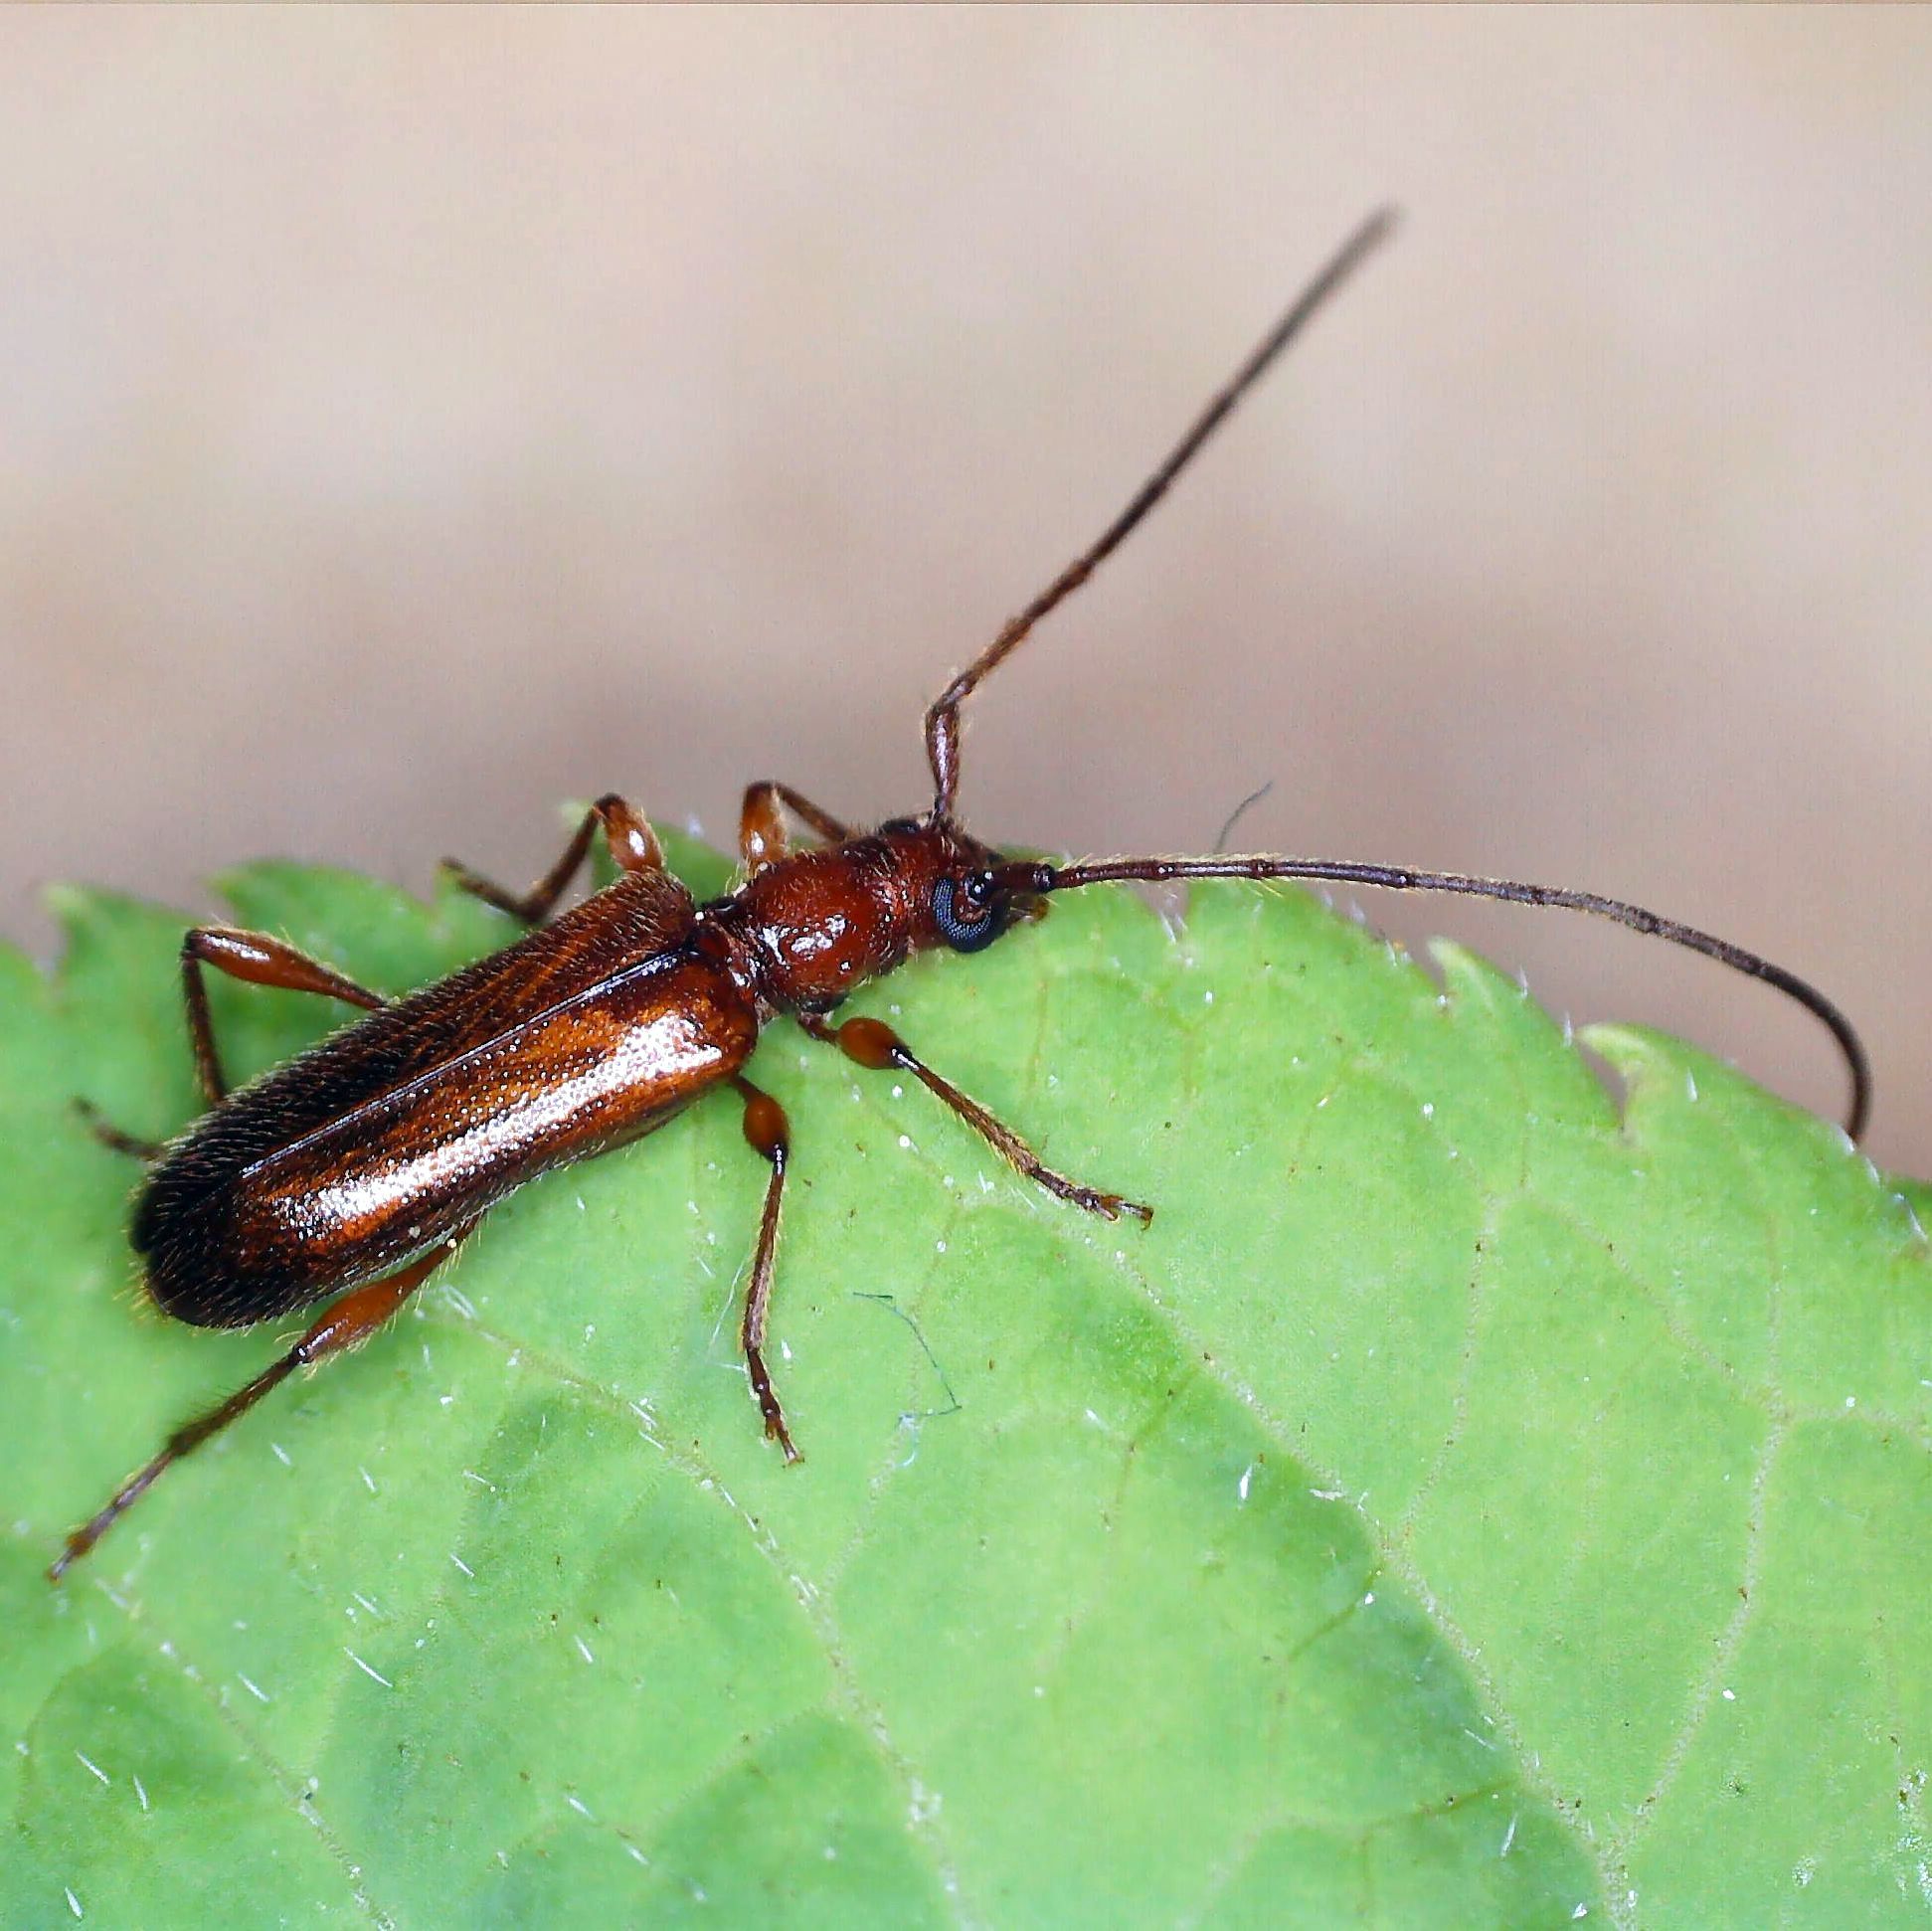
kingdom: Animalia
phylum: Arthropoda
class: Insecta
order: Coleoptera
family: Cerambycidae
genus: Obrium
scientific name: Obrium brunneum
